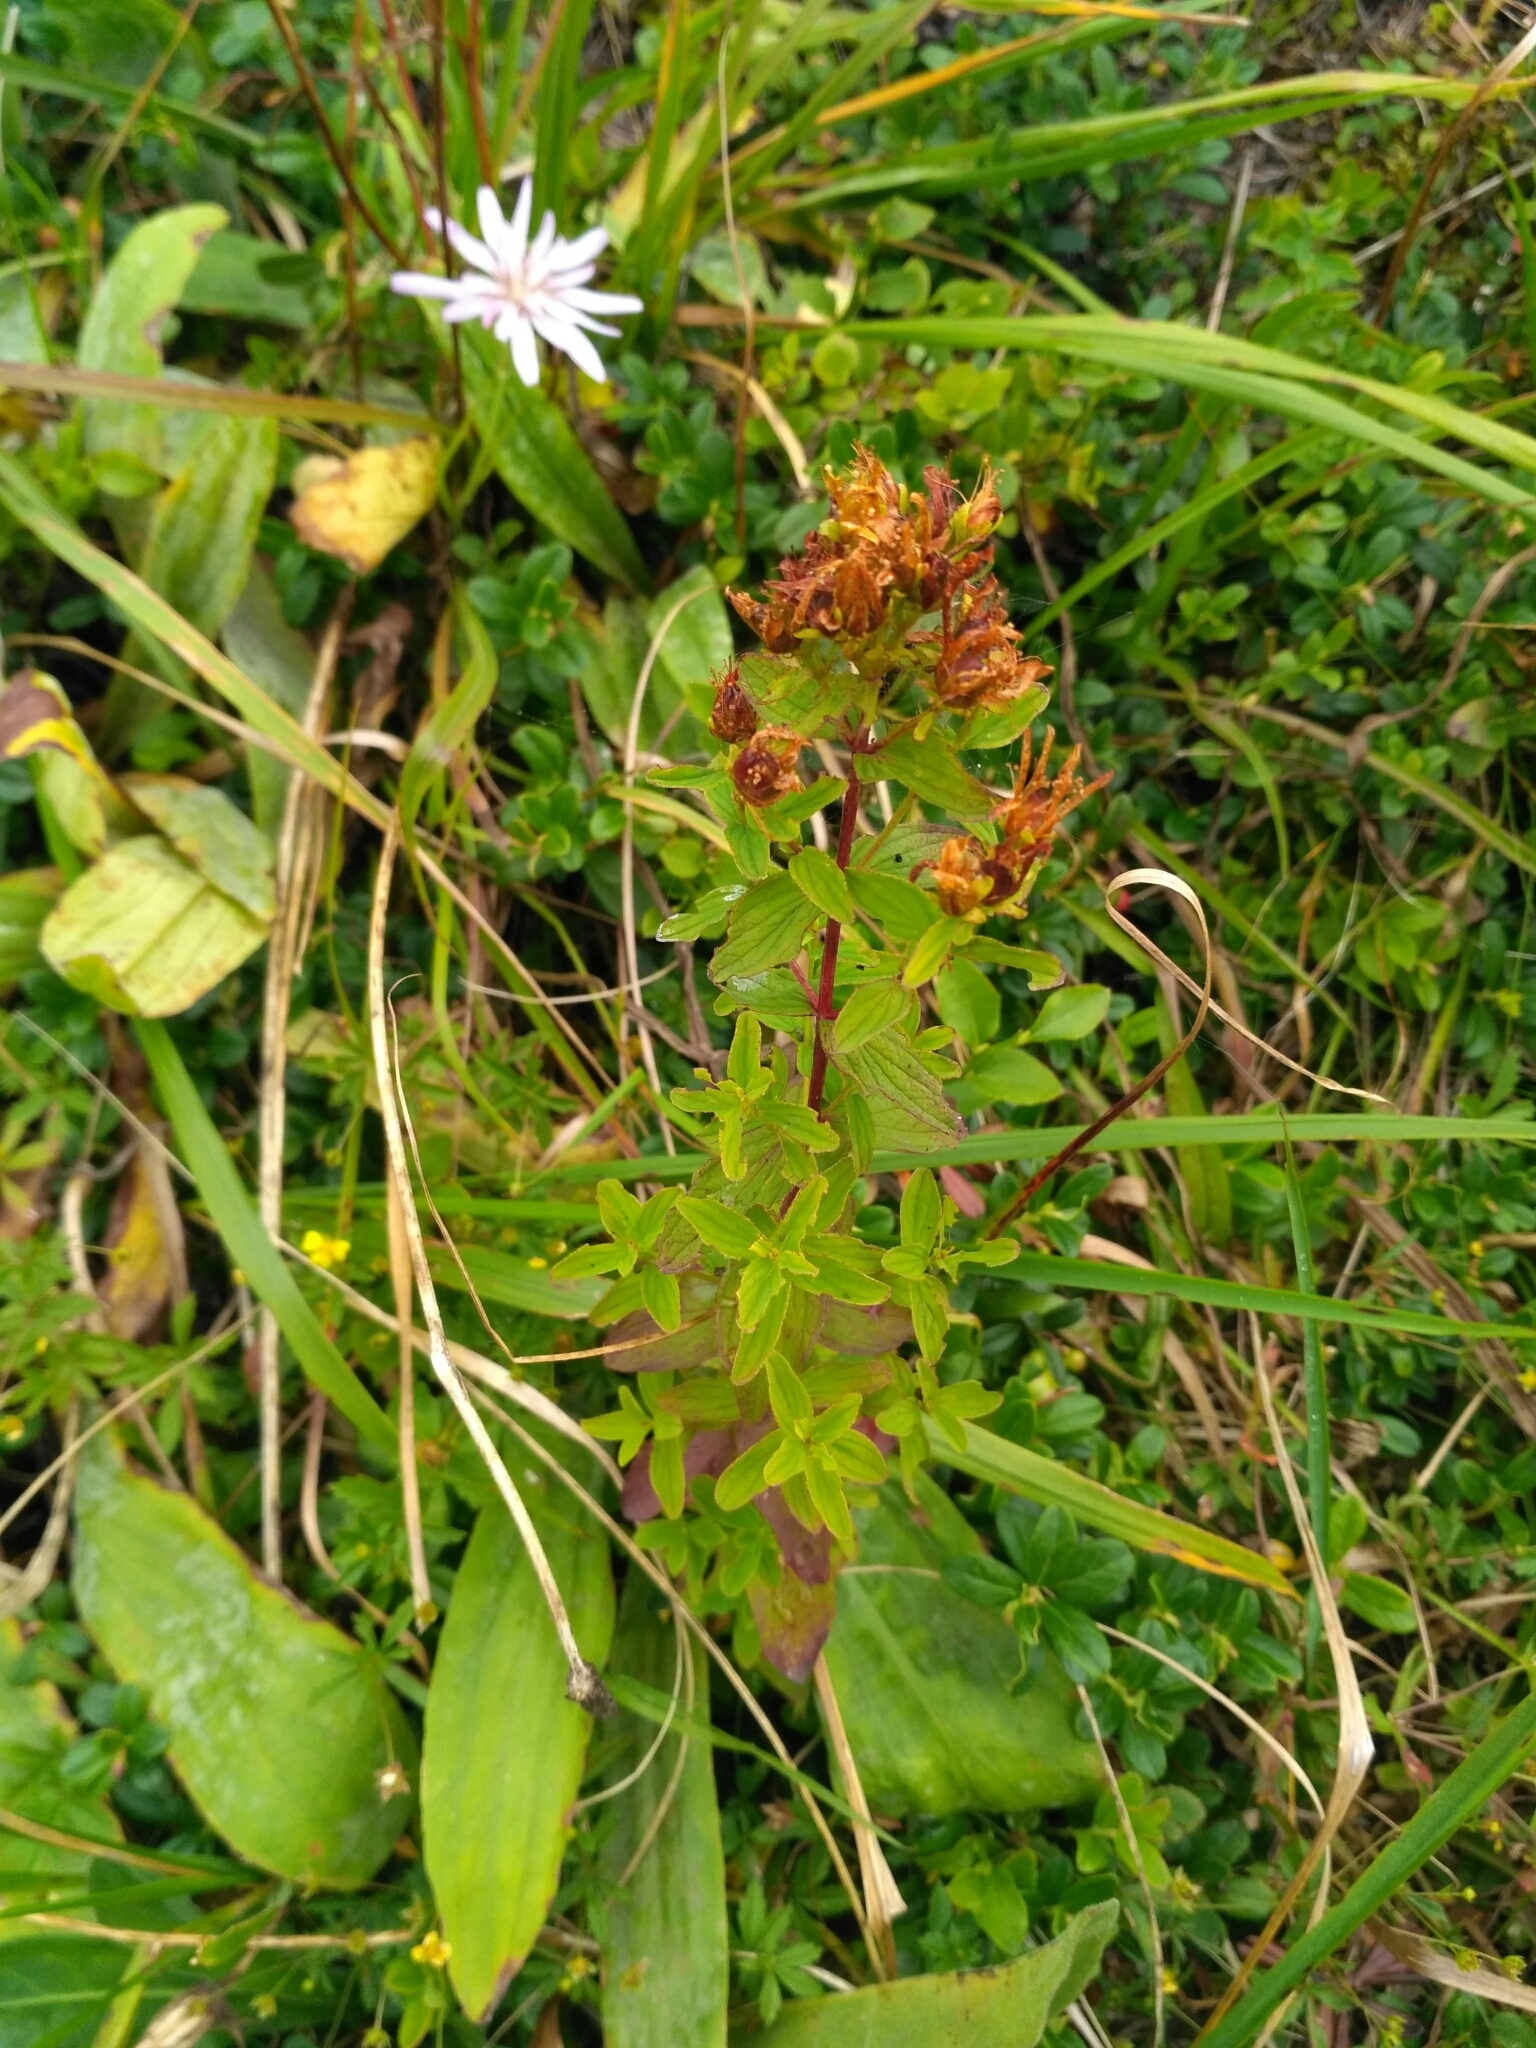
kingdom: Plantae
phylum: Tracheophyta
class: Magnoliopsida
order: Malpighiales
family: Hypericaceae
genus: Hypericum
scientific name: Hypericum maculatum
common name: Imperforate st. john's-wort
